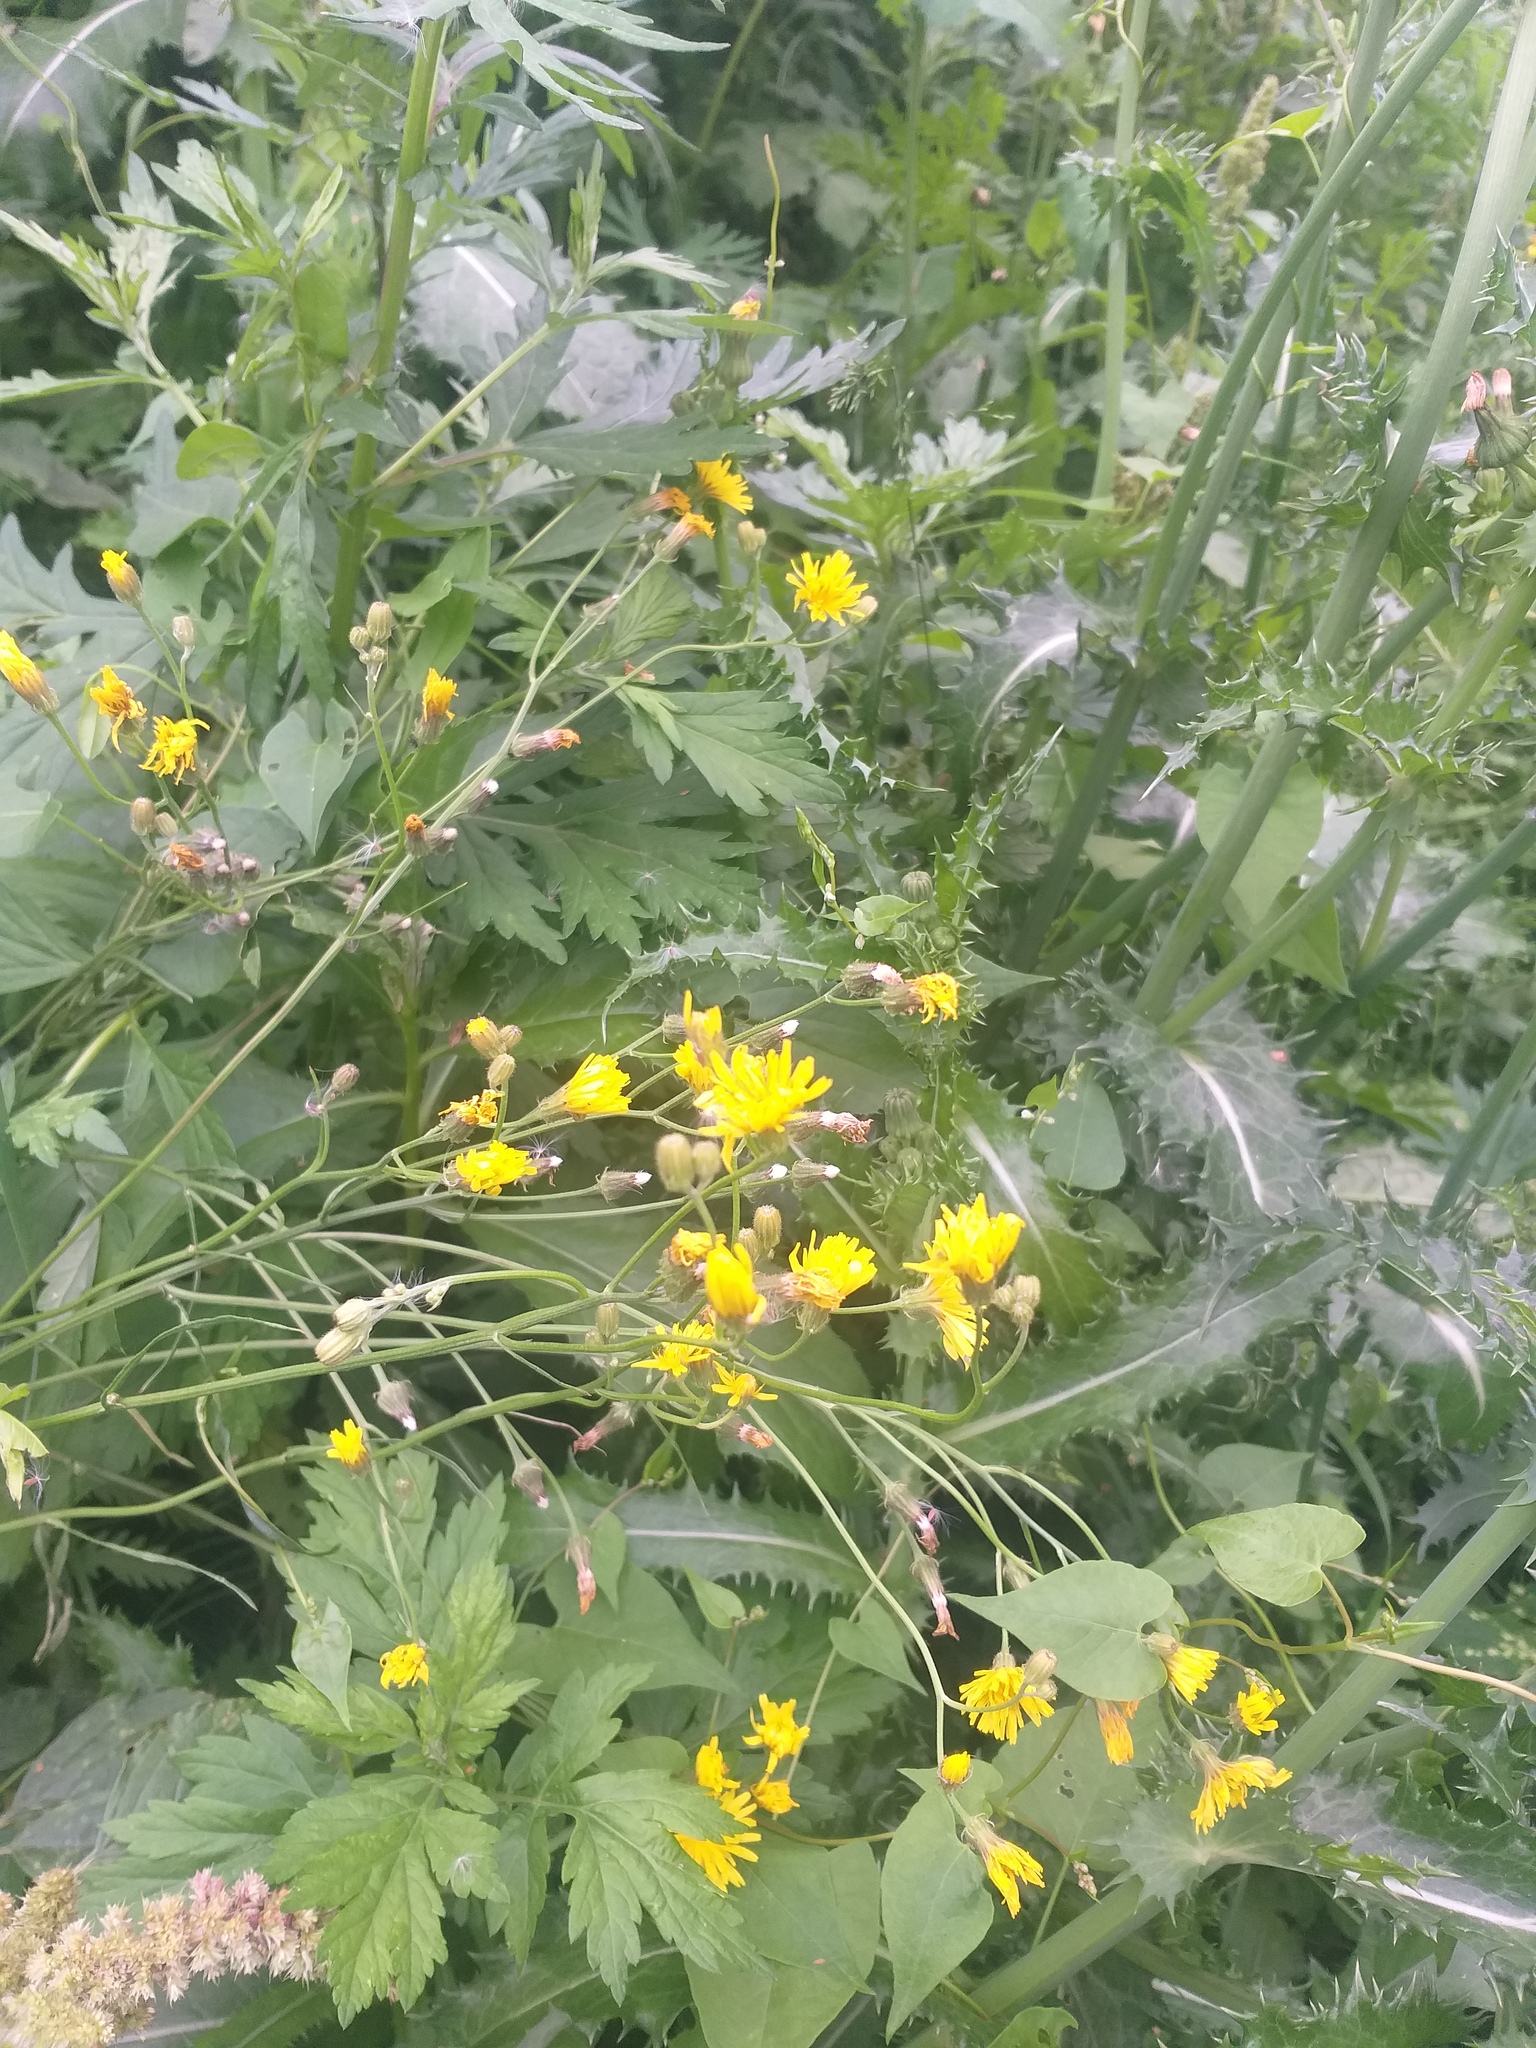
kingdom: Plantae
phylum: Tracheophyta
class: Magnoliopsida
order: Asterales
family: Asteraceae
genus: Crepis
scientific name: Crepis tectorum
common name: Narrow-leaved hawk's-beard
